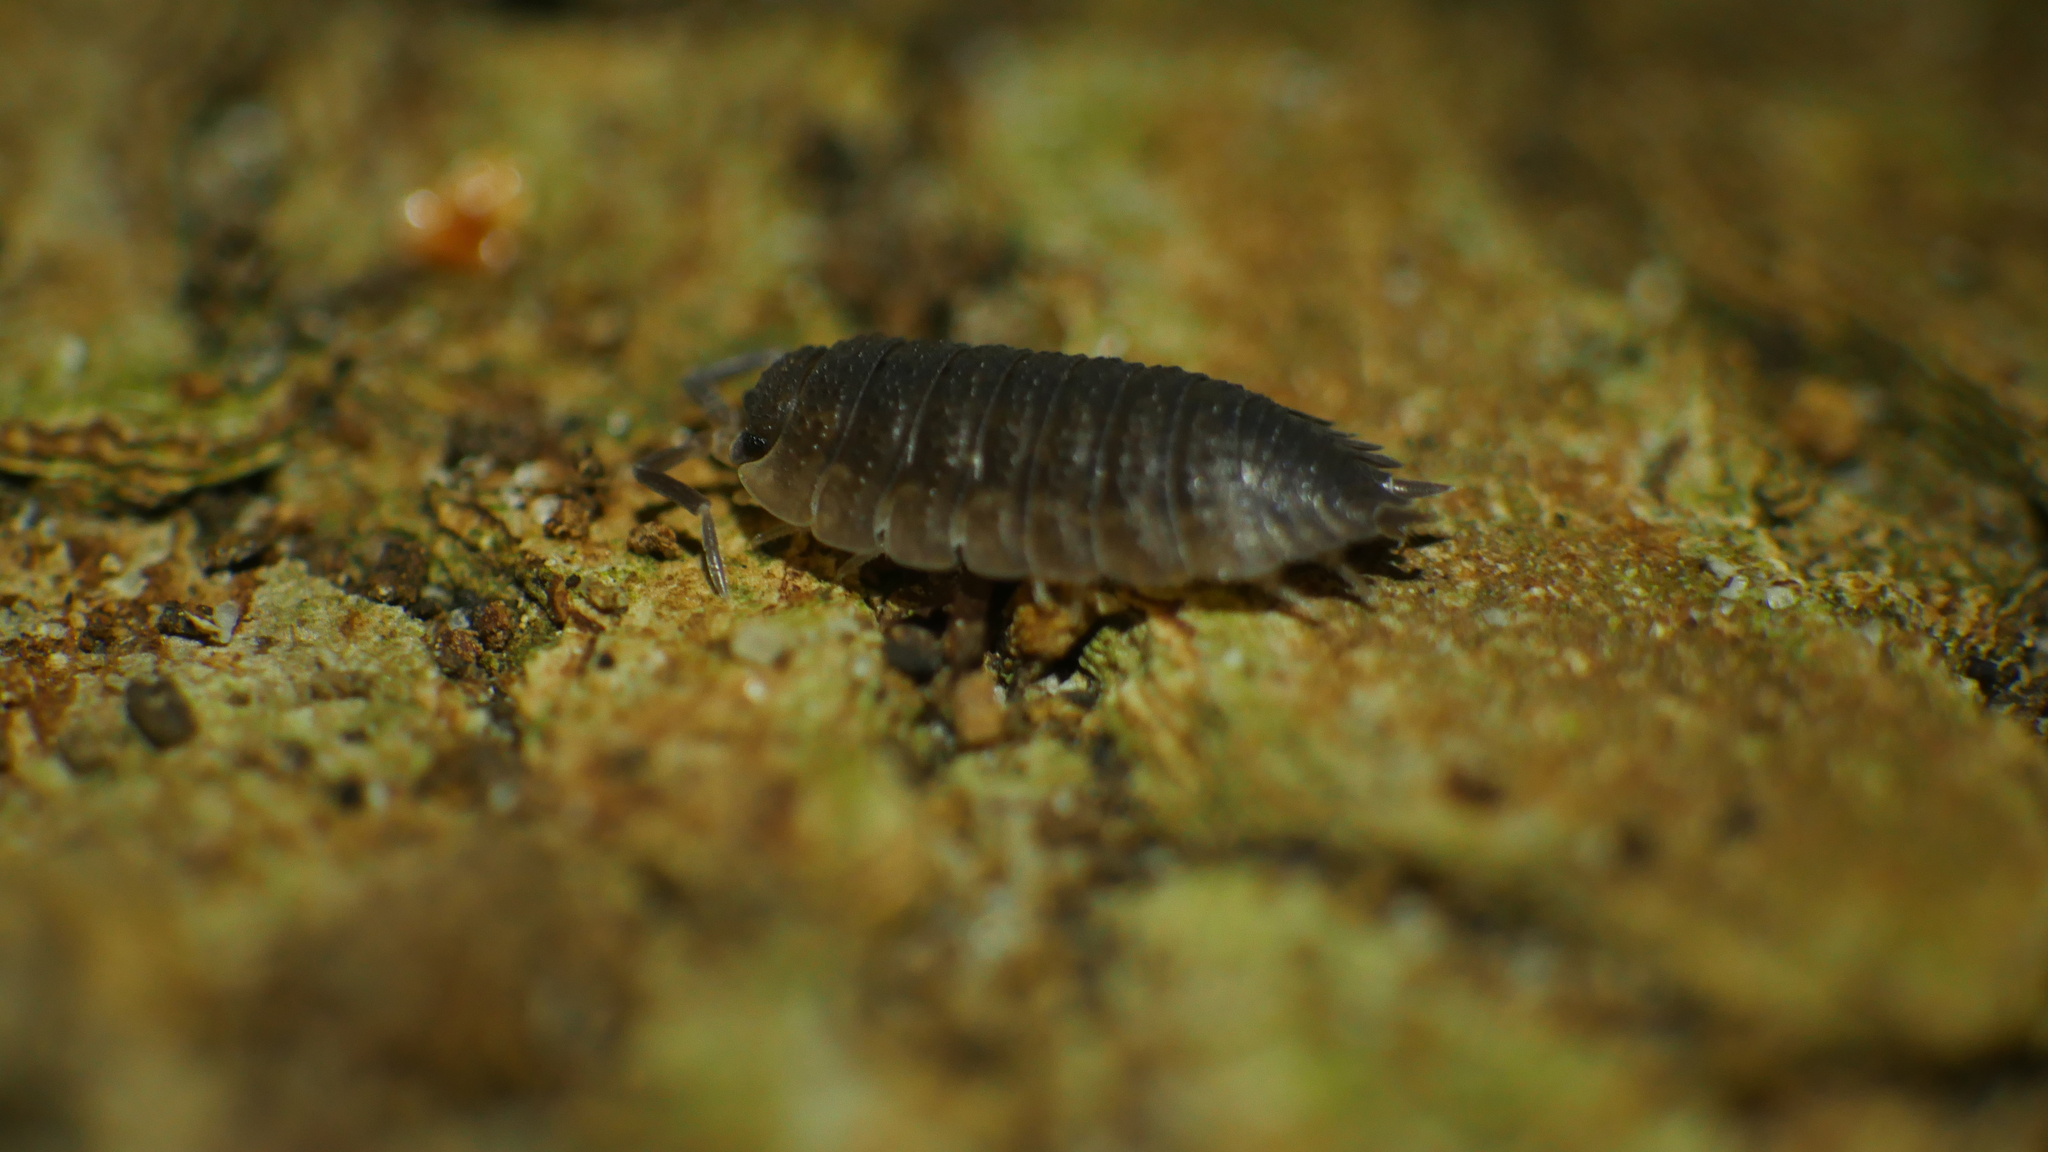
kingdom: Animalia
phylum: Arthropoda
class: Malacostraca
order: Isopoda
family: Porcellionidae
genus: Porcellio
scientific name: Porcellio scaber
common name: Common rough woodlouse
